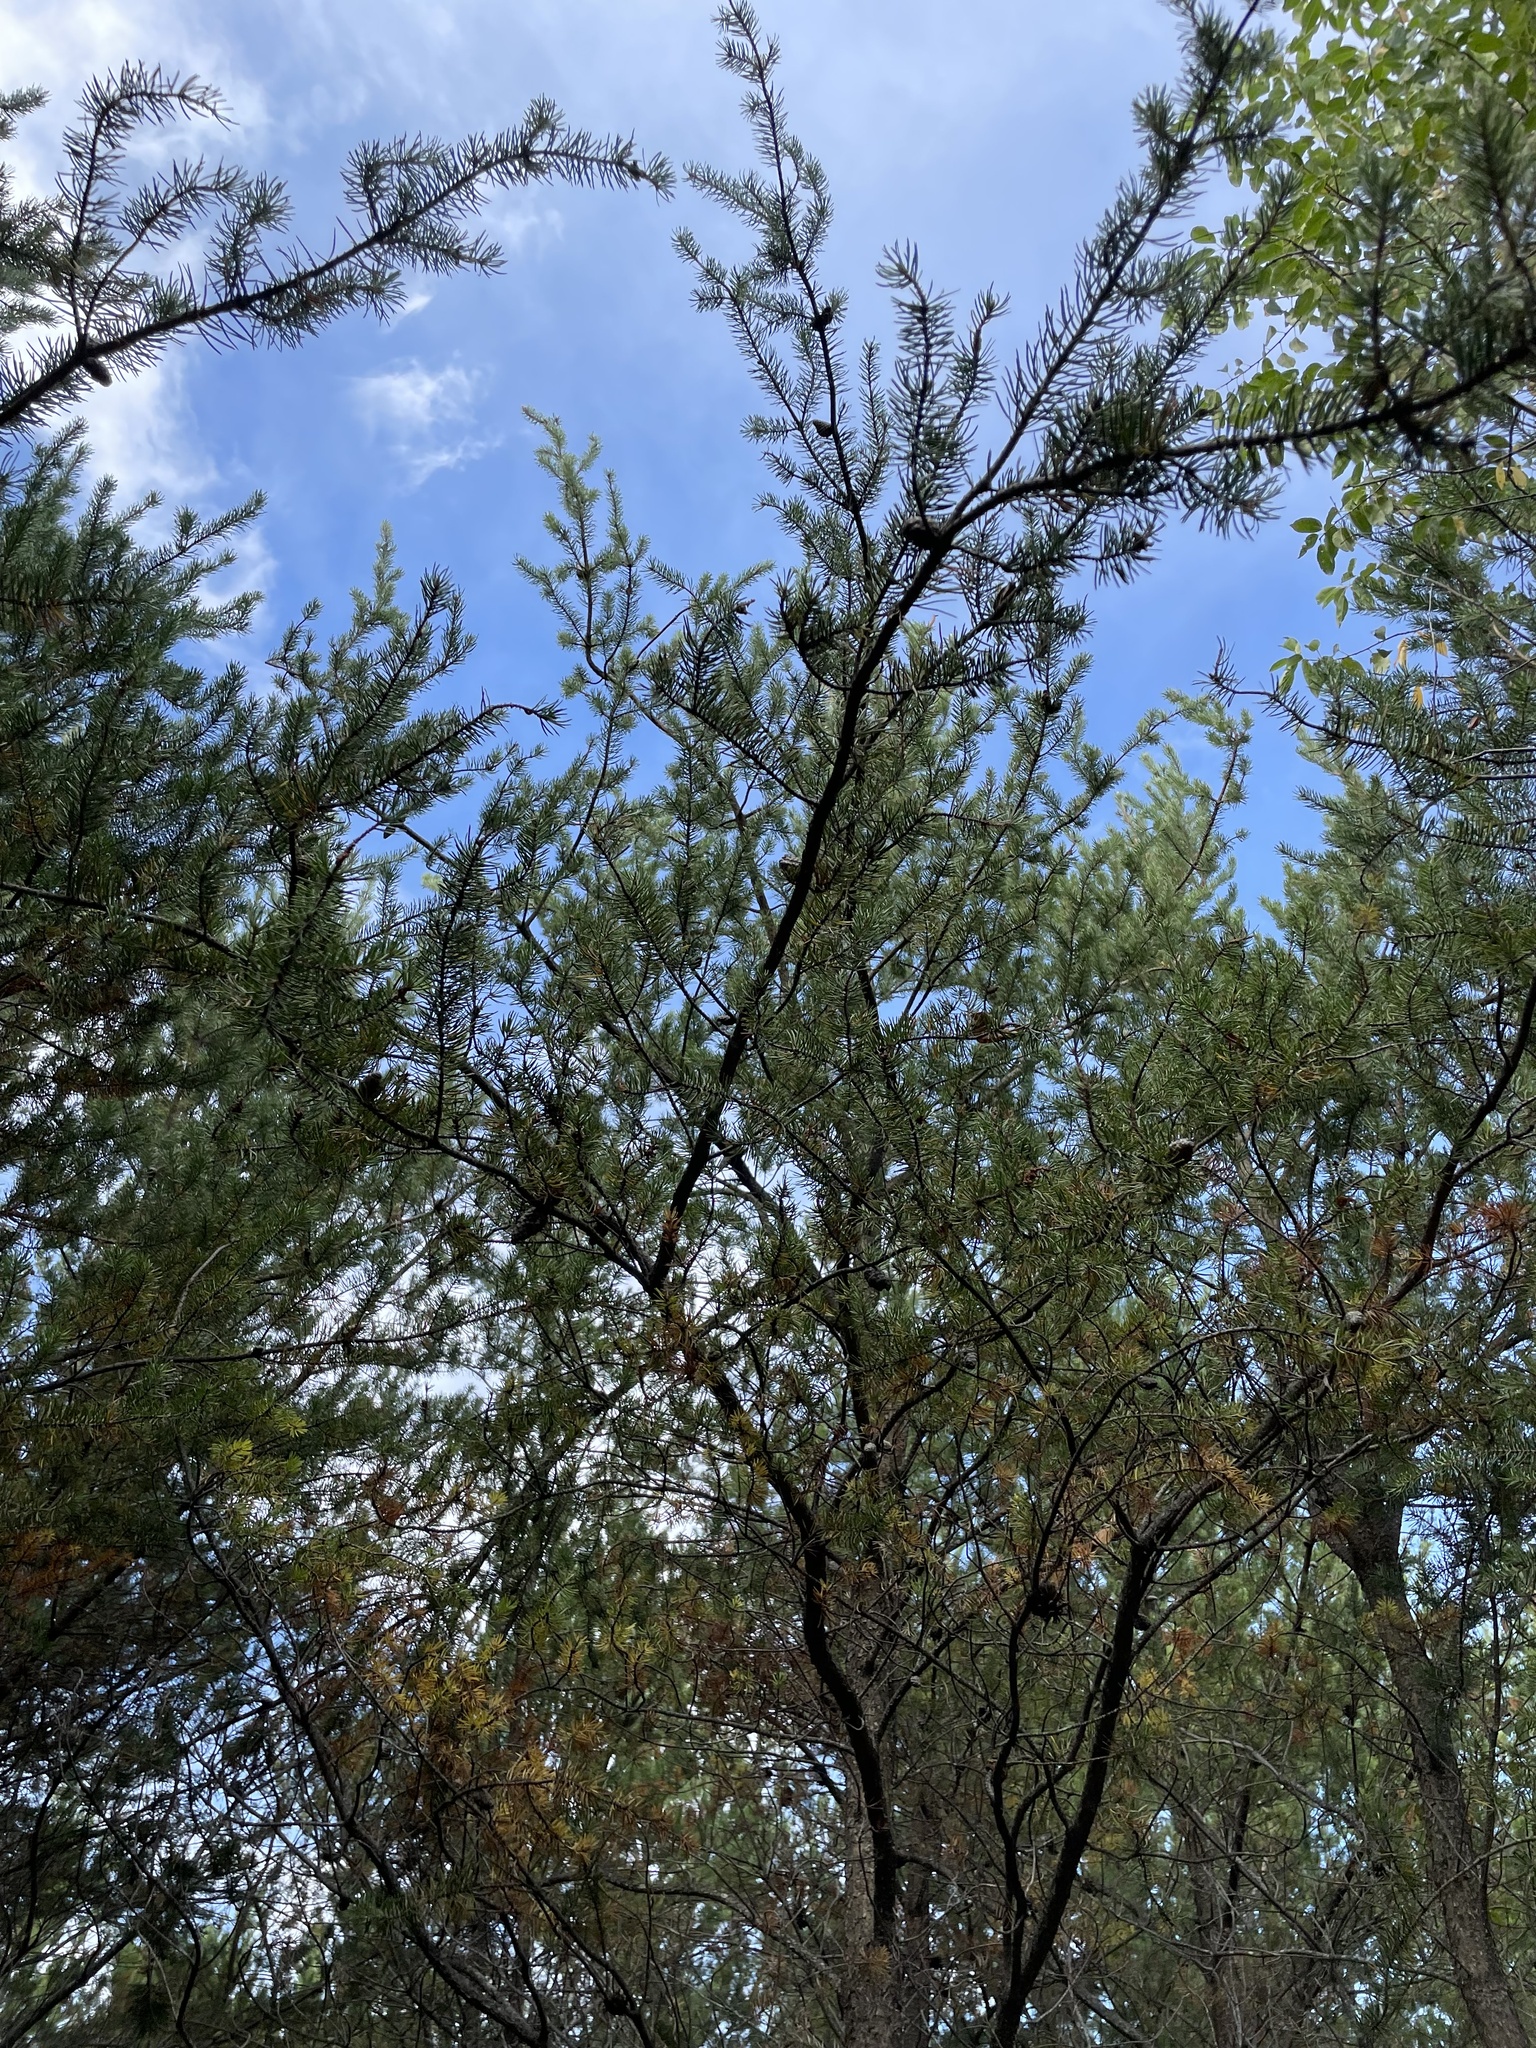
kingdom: Plantae
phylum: Tracheophyta
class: Pinopsida
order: Pinales
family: Pinaceae
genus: Pinus
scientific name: Pinus banksiana
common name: Jack pine
